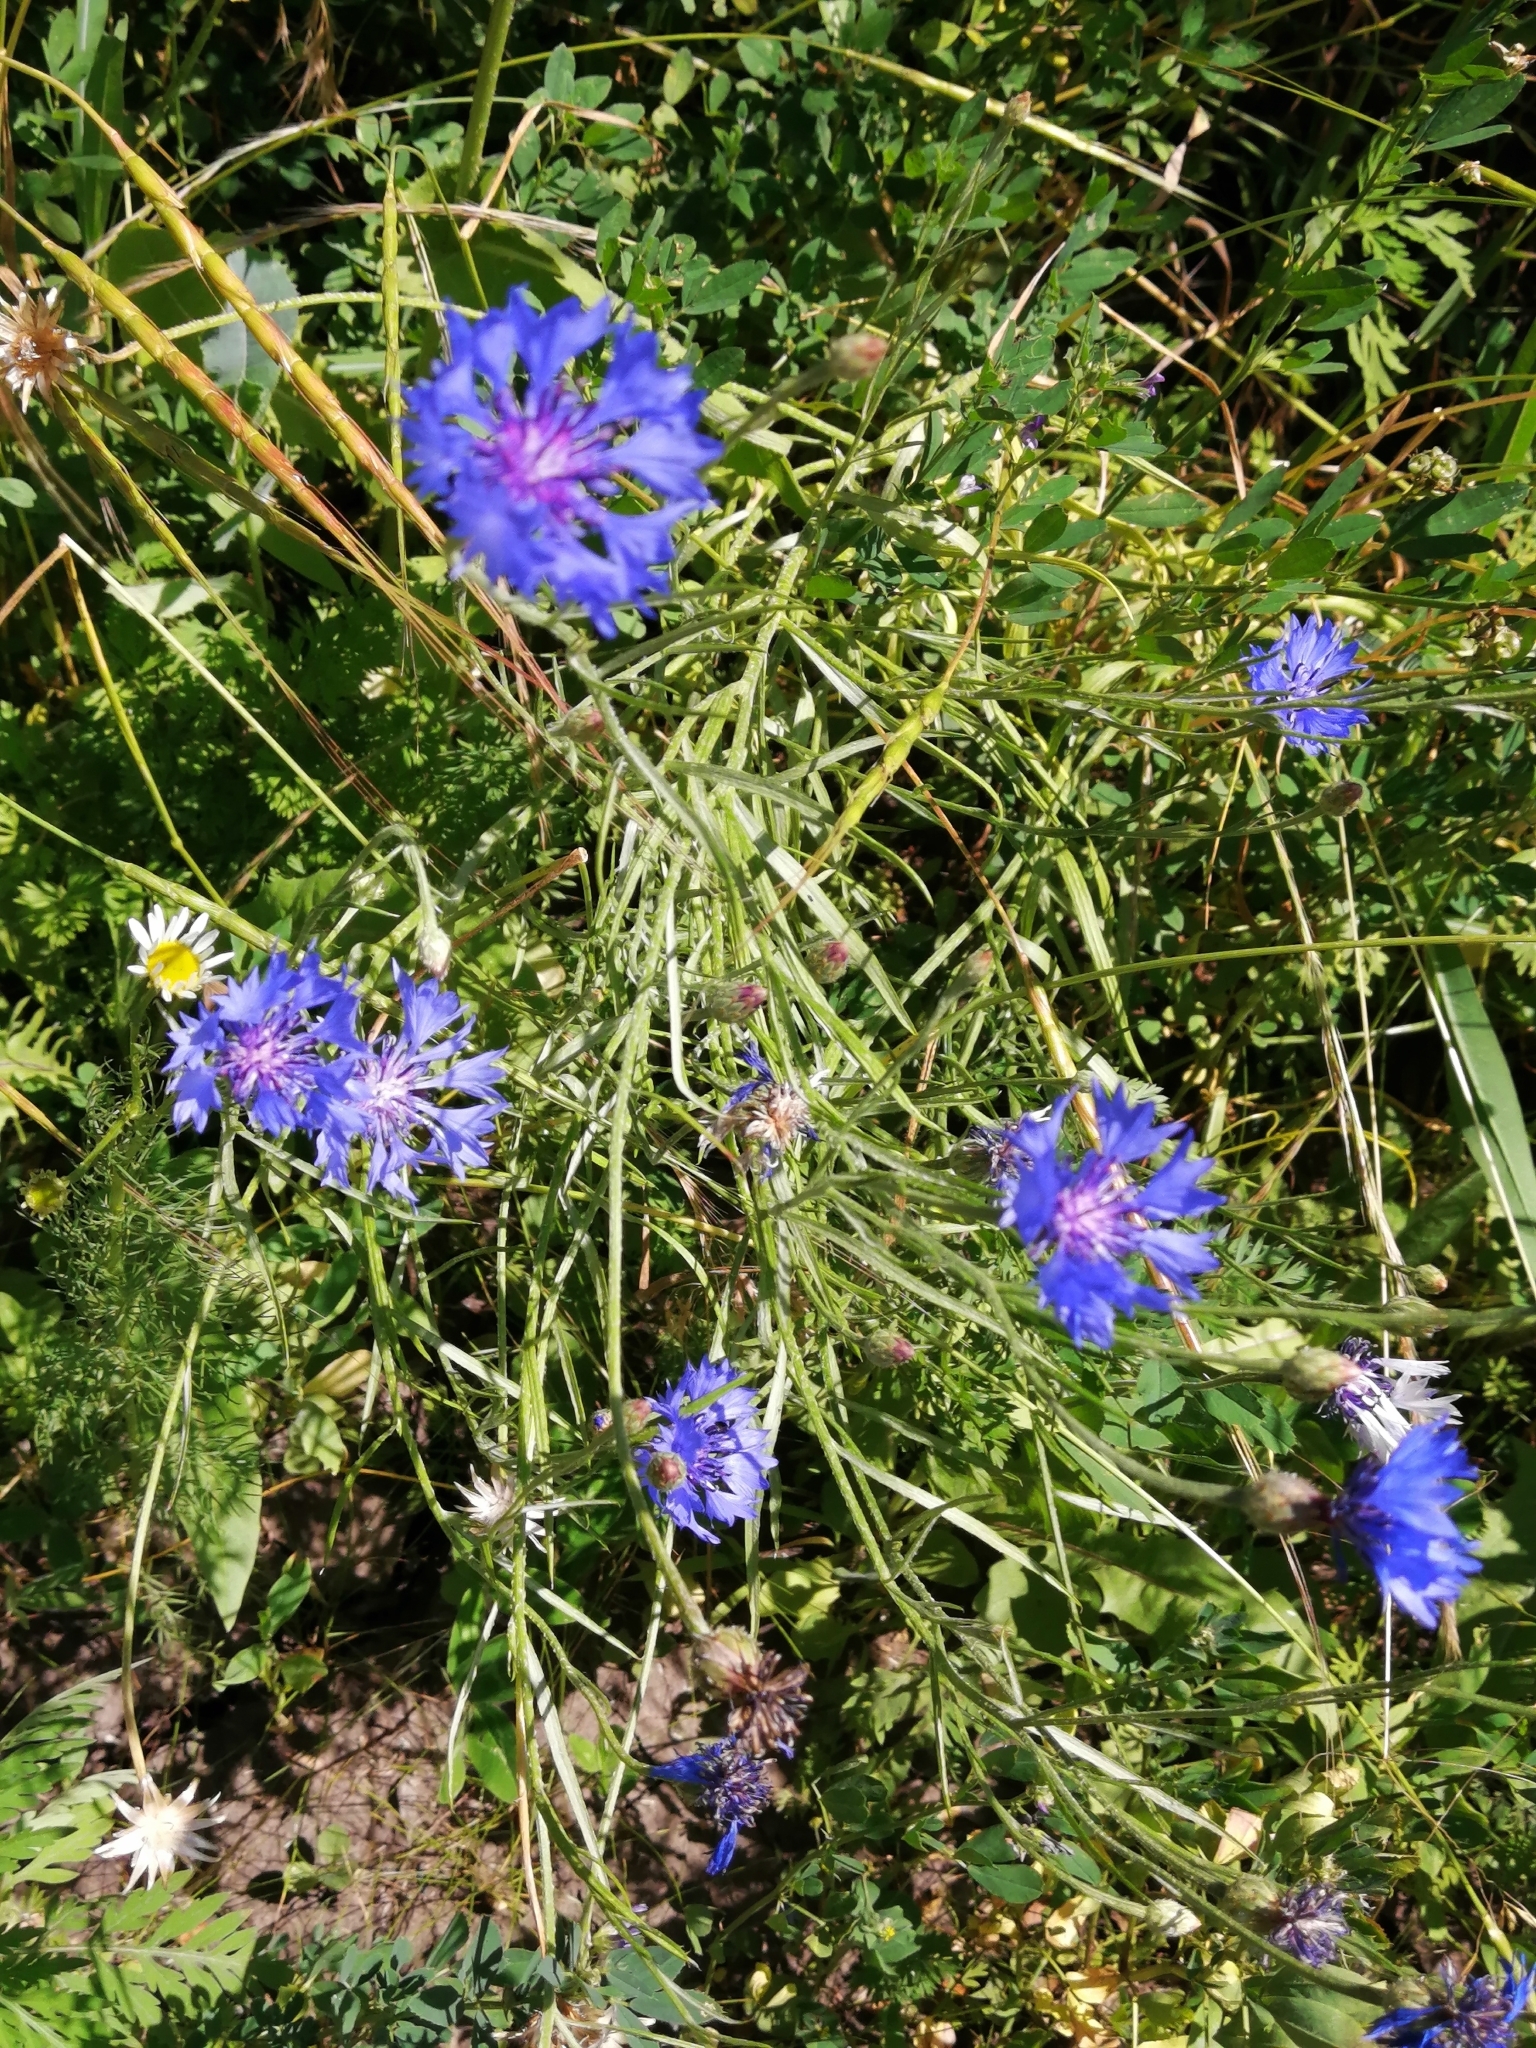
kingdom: Plantae
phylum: Tracheophyta
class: Magnoliopsida
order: Asterales
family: Asteraceae
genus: Centaurea
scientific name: Centaurea cyanus
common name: Cornflower
